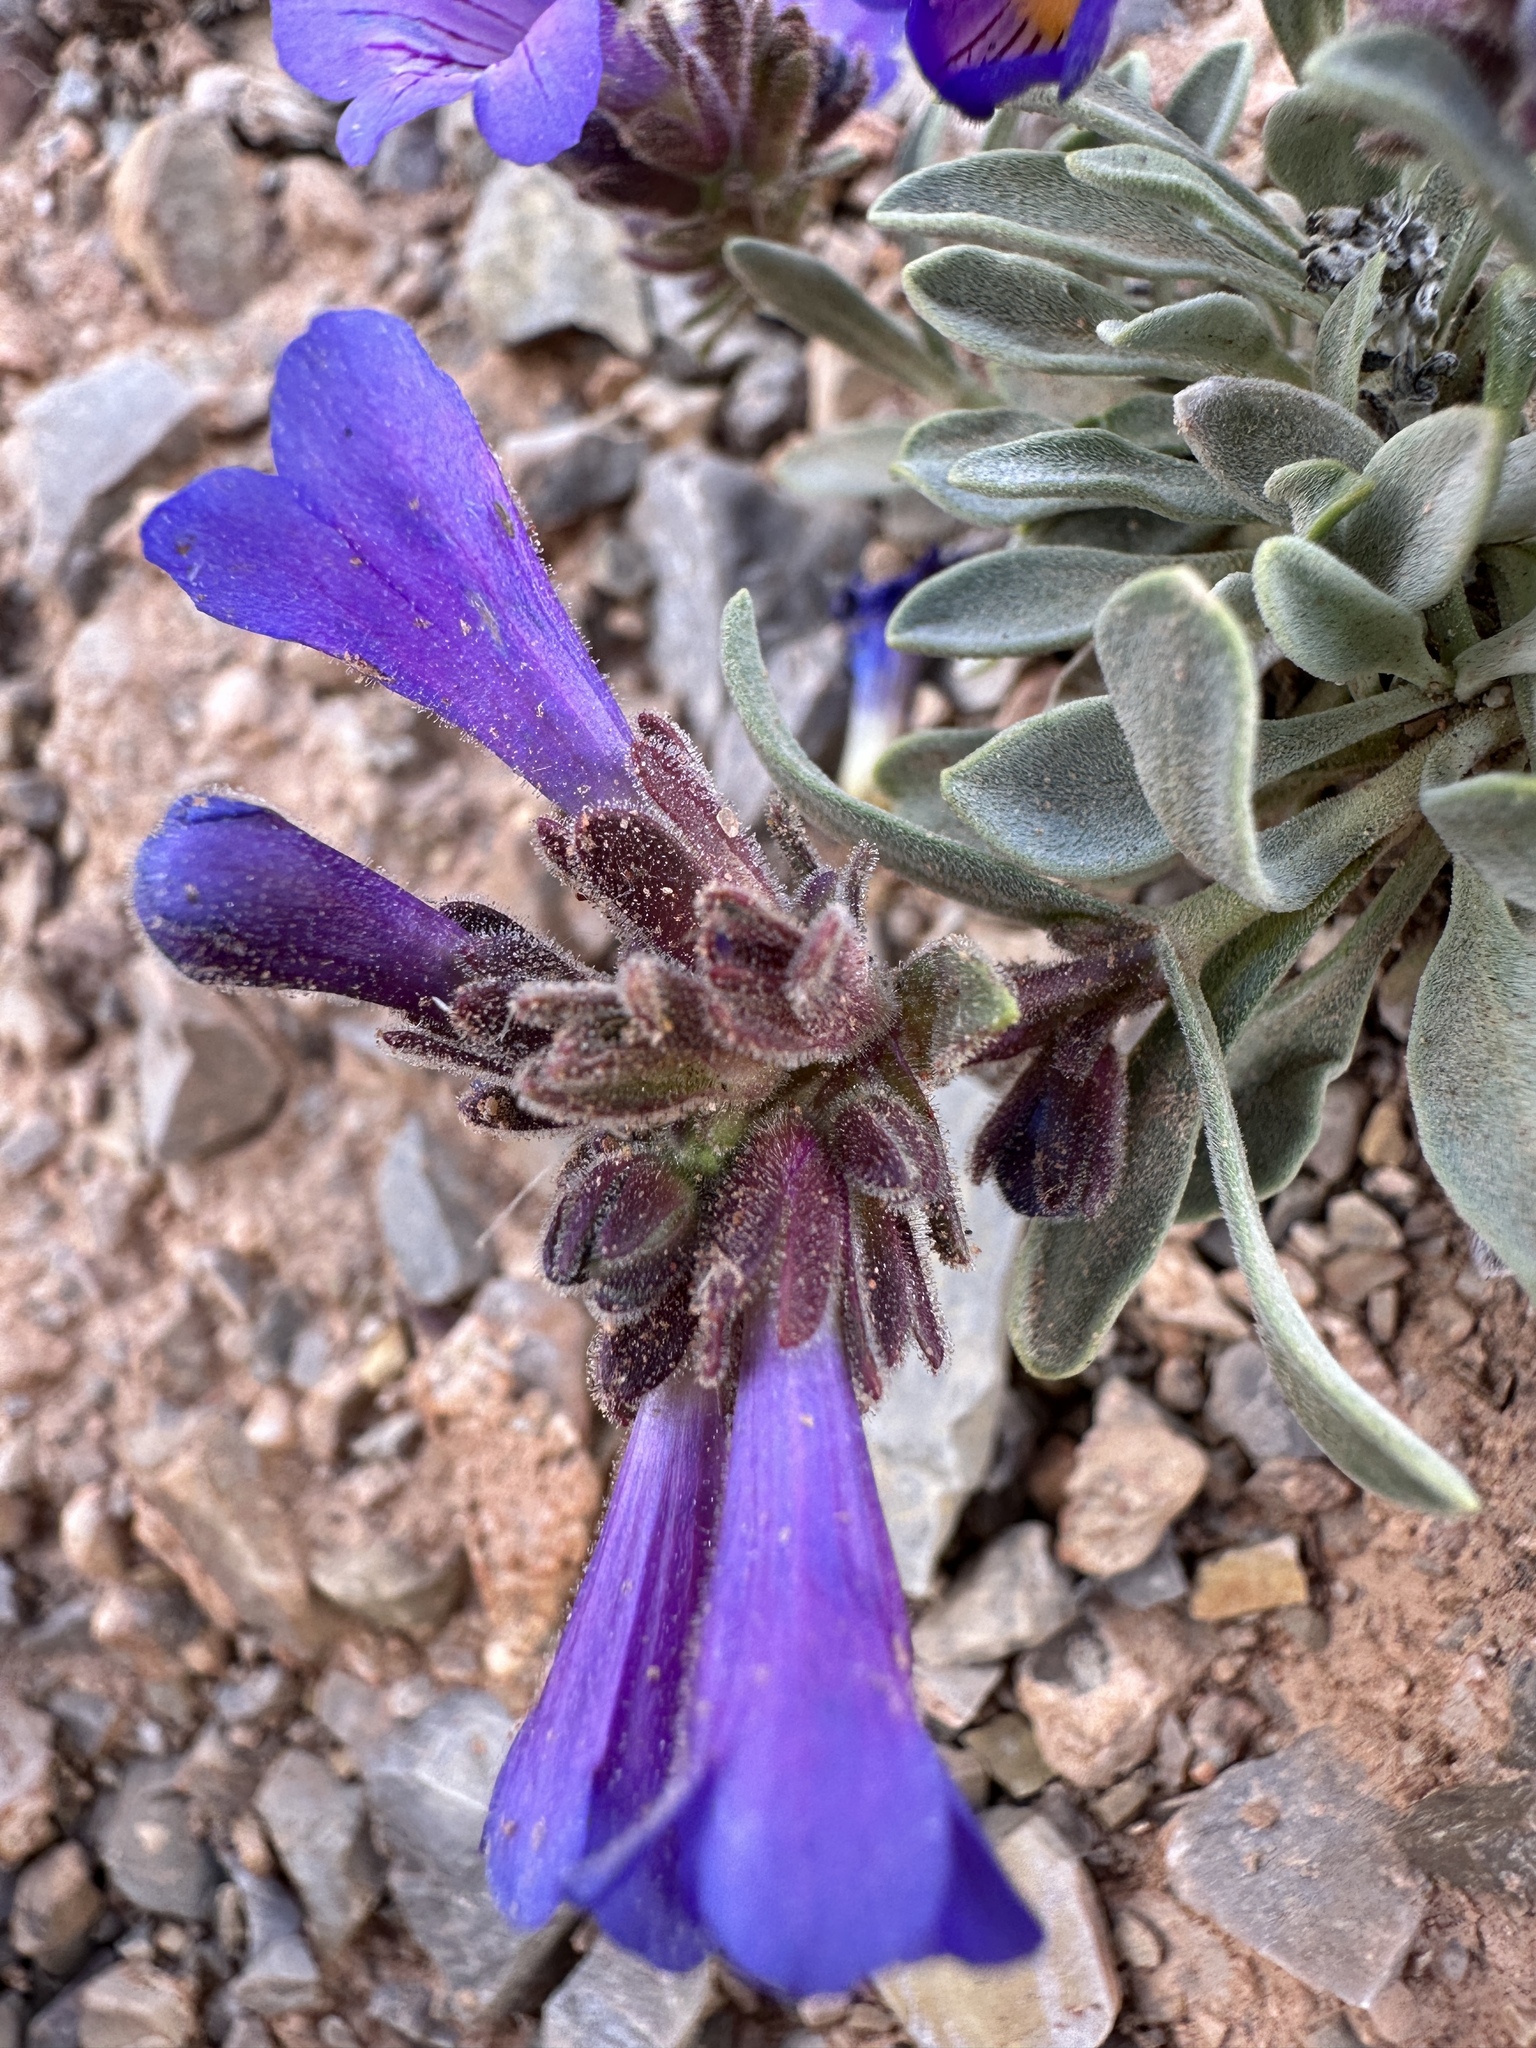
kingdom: Plantae
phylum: Tracheophyta
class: Magnoliopsida
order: Lamiales
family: Plantaginaceae
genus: Penstemon
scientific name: Penstemon nanus
